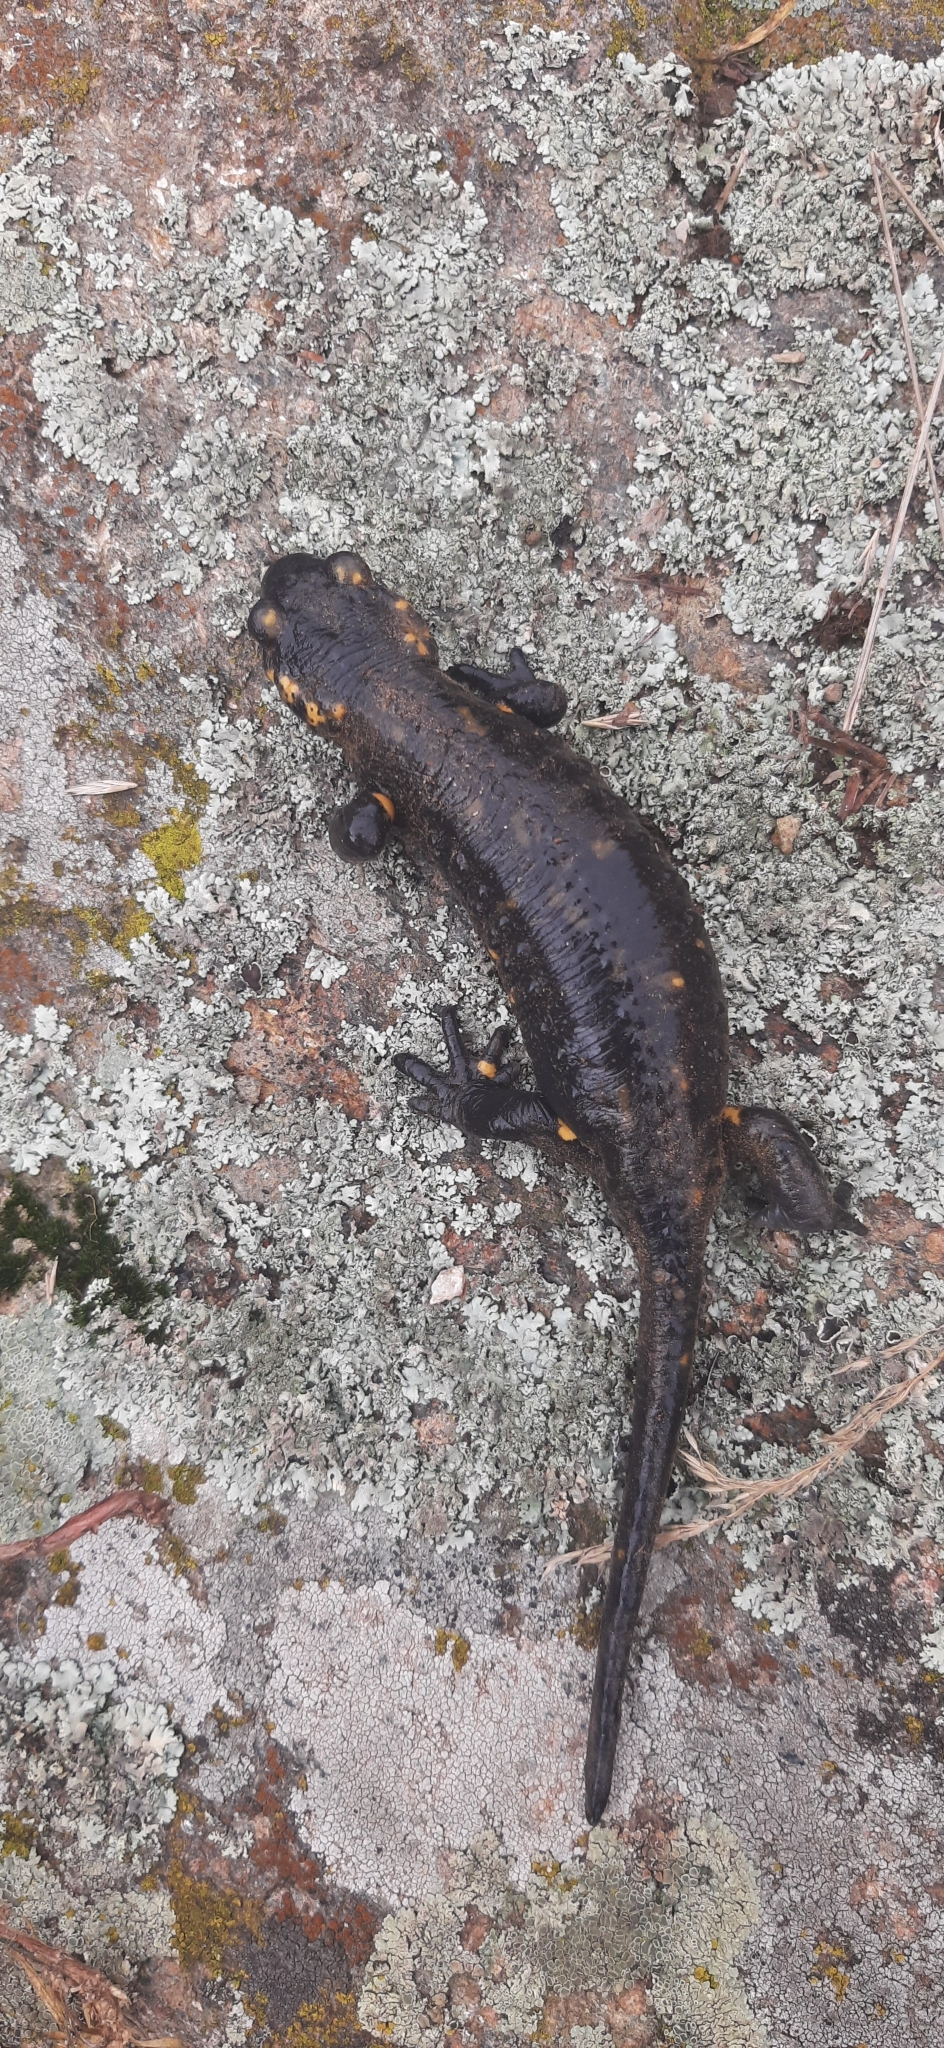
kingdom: Animalia
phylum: Chordata
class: Amphibia
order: Caudata
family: Salamandridae
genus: Salamandra
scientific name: Salamandra salamandra
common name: Fire salamander
